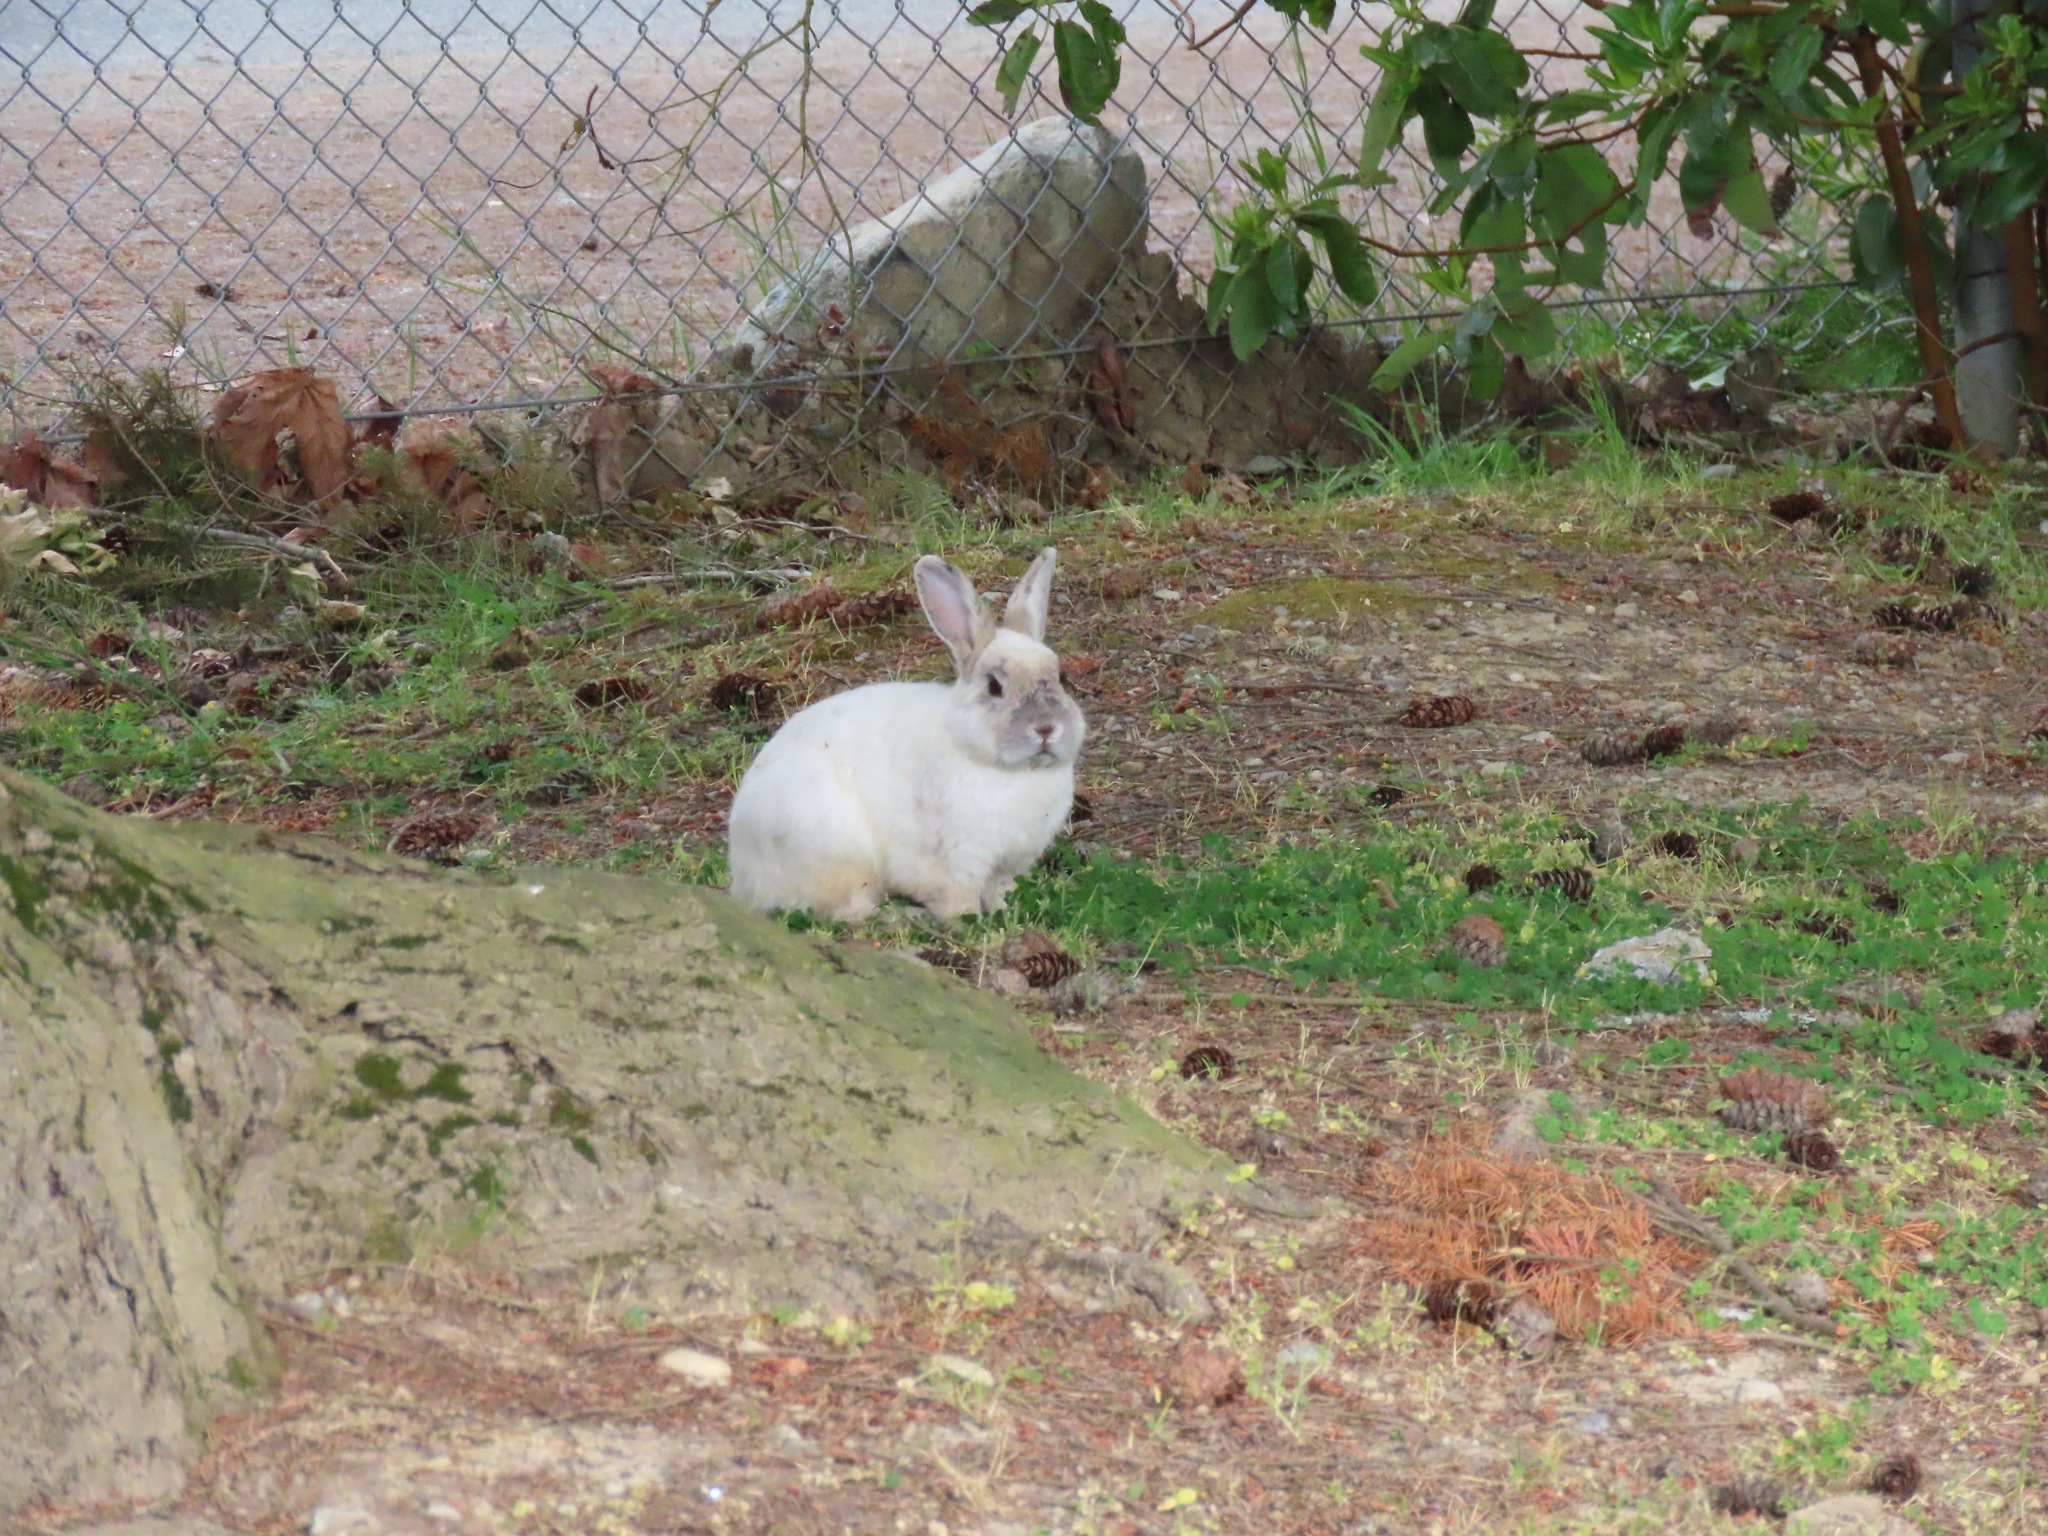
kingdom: Animalia
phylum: Chordata
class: Mammalia
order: Lagomorpha
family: Leporidae
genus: Oryctolagus
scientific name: Oryctolagus cuniculus
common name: European rabbit
